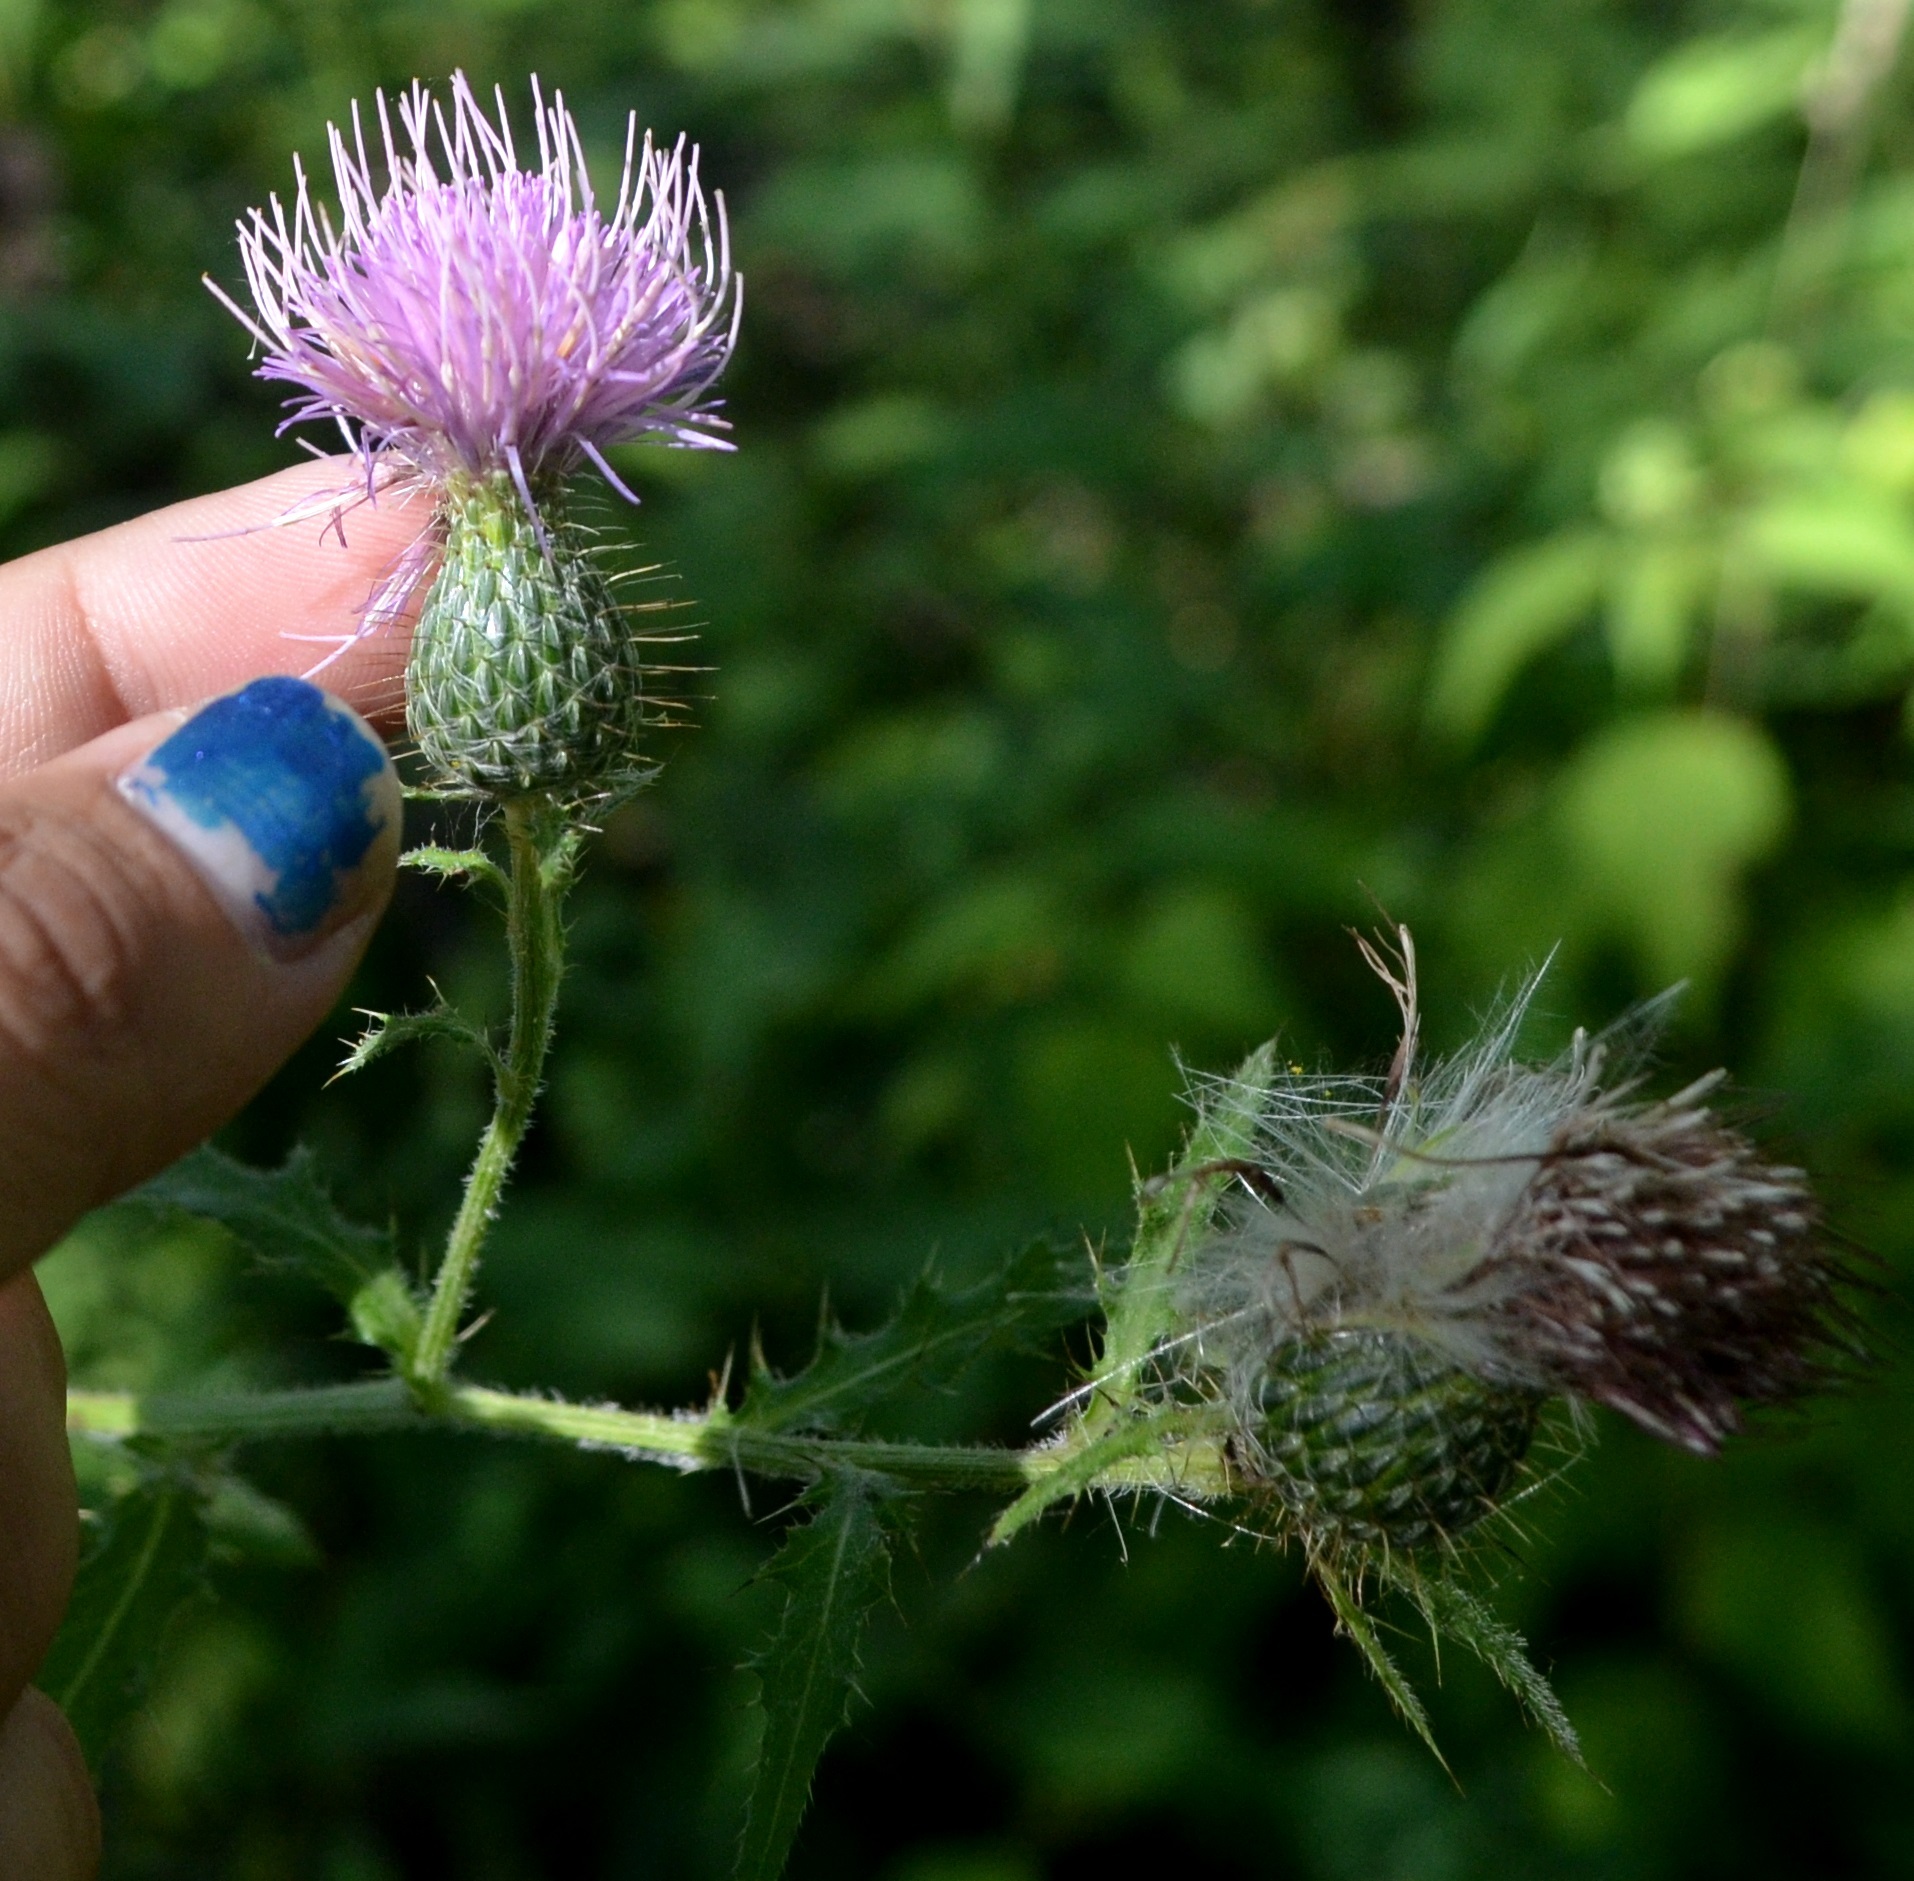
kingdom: Plantae
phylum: Tracheophyta
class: Magnoliopsida
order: Asterales
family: Asteraceae
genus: Cirsium
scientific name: Cirsium altissimum
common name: Roadside thistle
